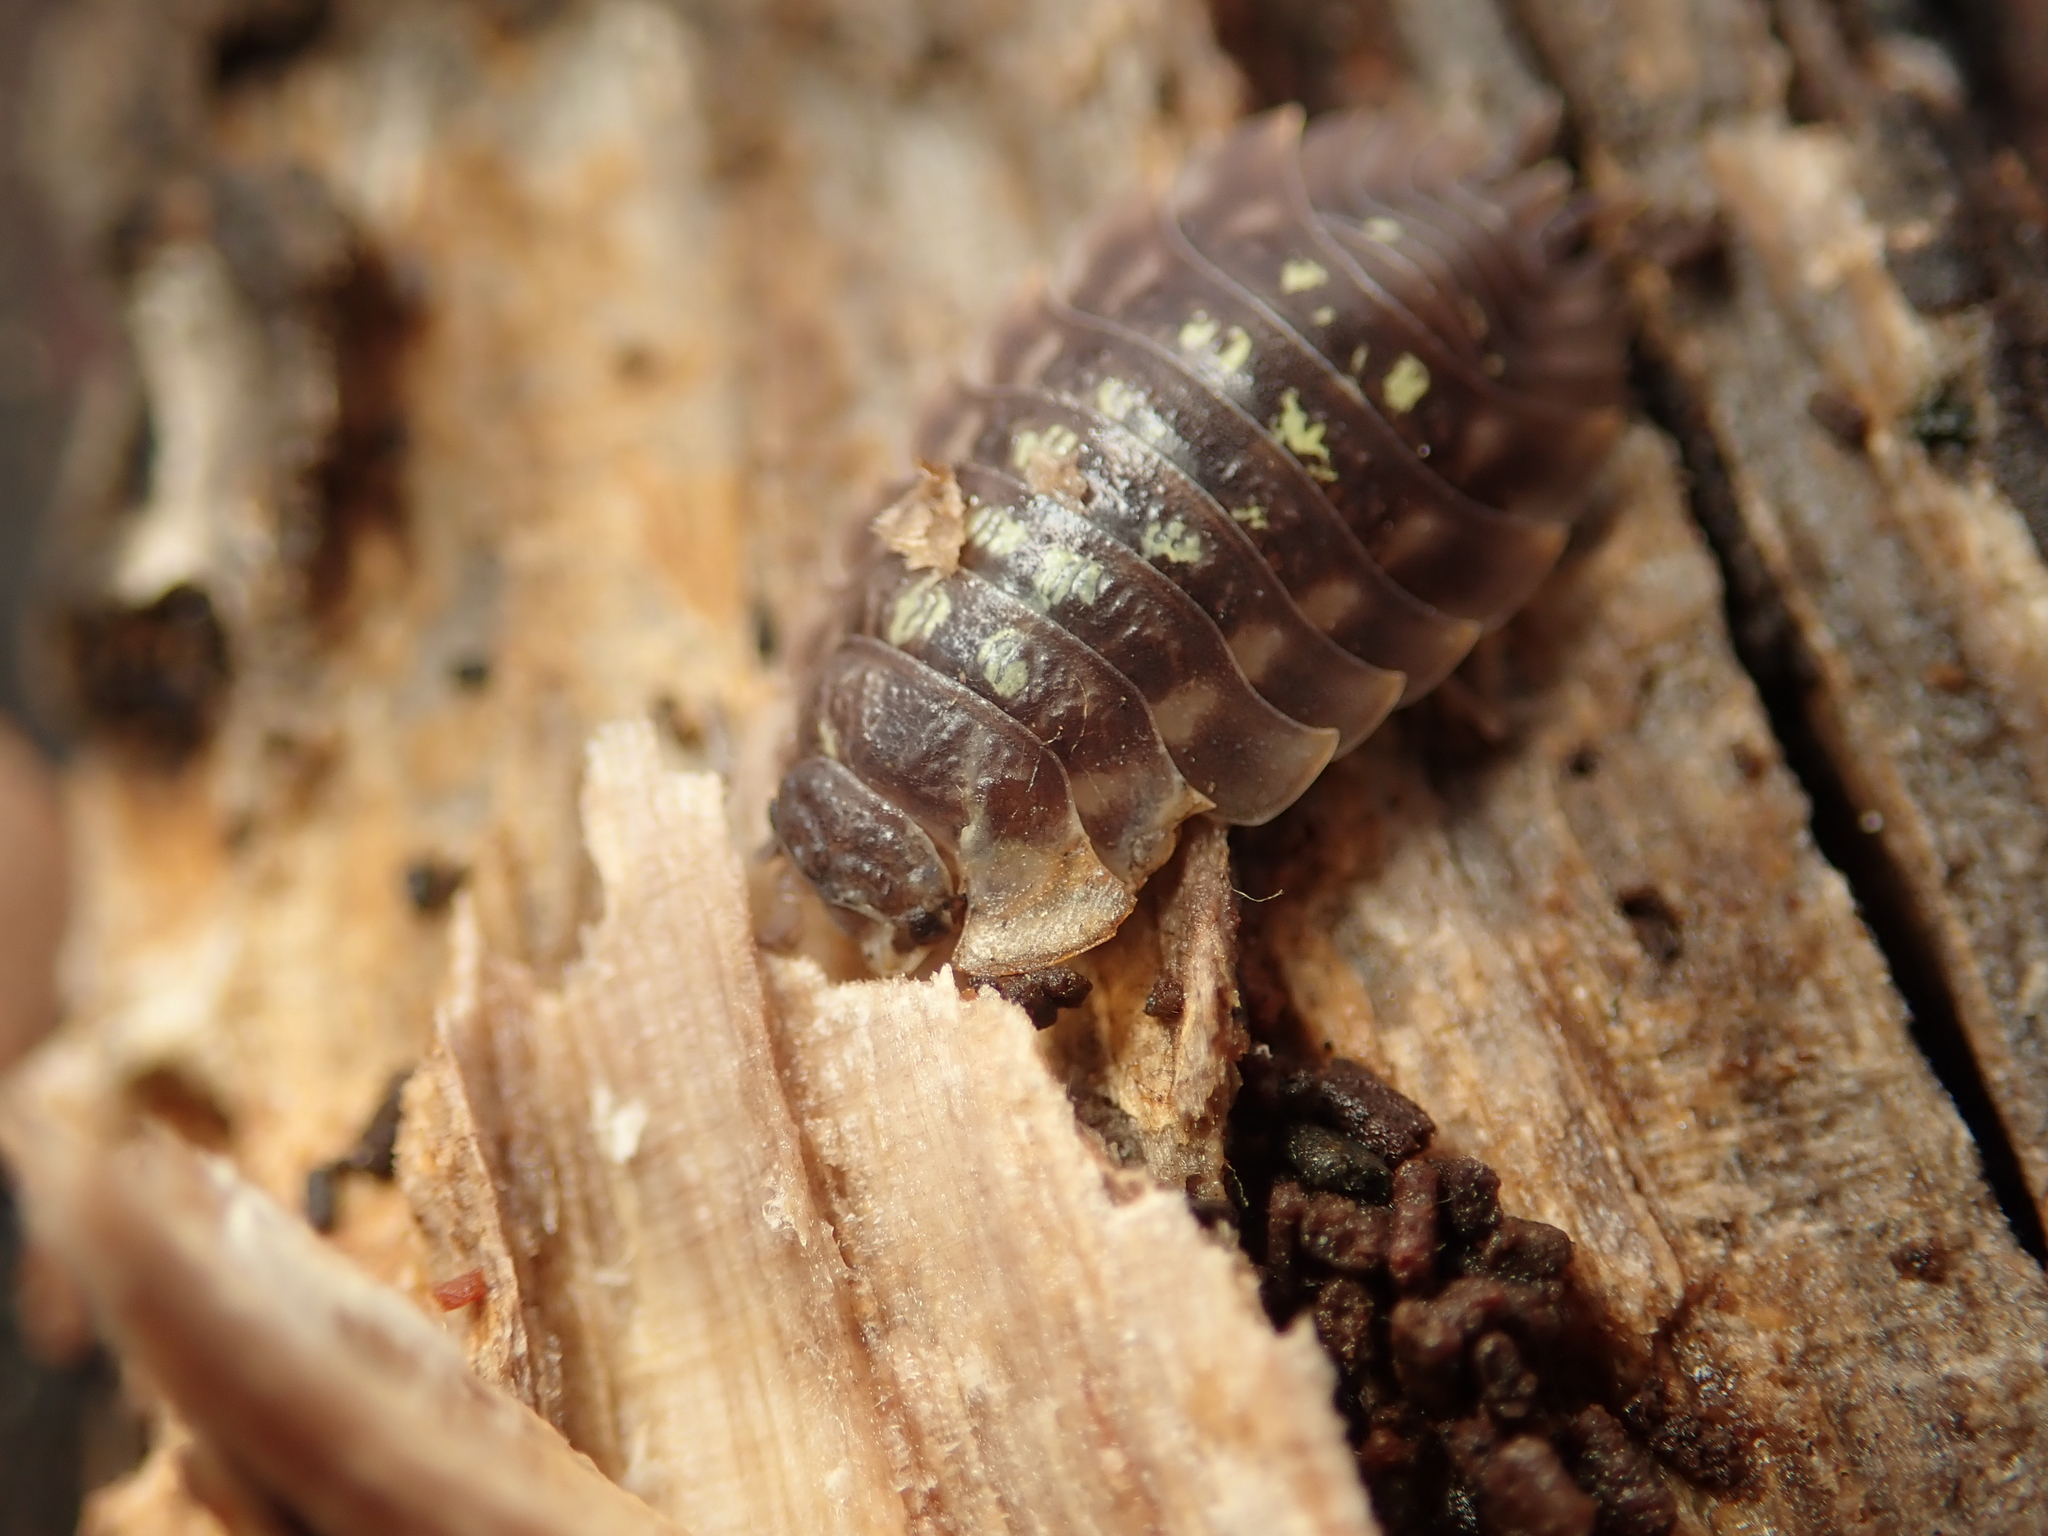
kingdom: Animalia
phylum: Arthropoda
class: Malacostraca
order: Isopoda
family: Oniscidae
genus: Oniscus
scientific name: Oniscus asellus
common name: Common shiny woodlouse
